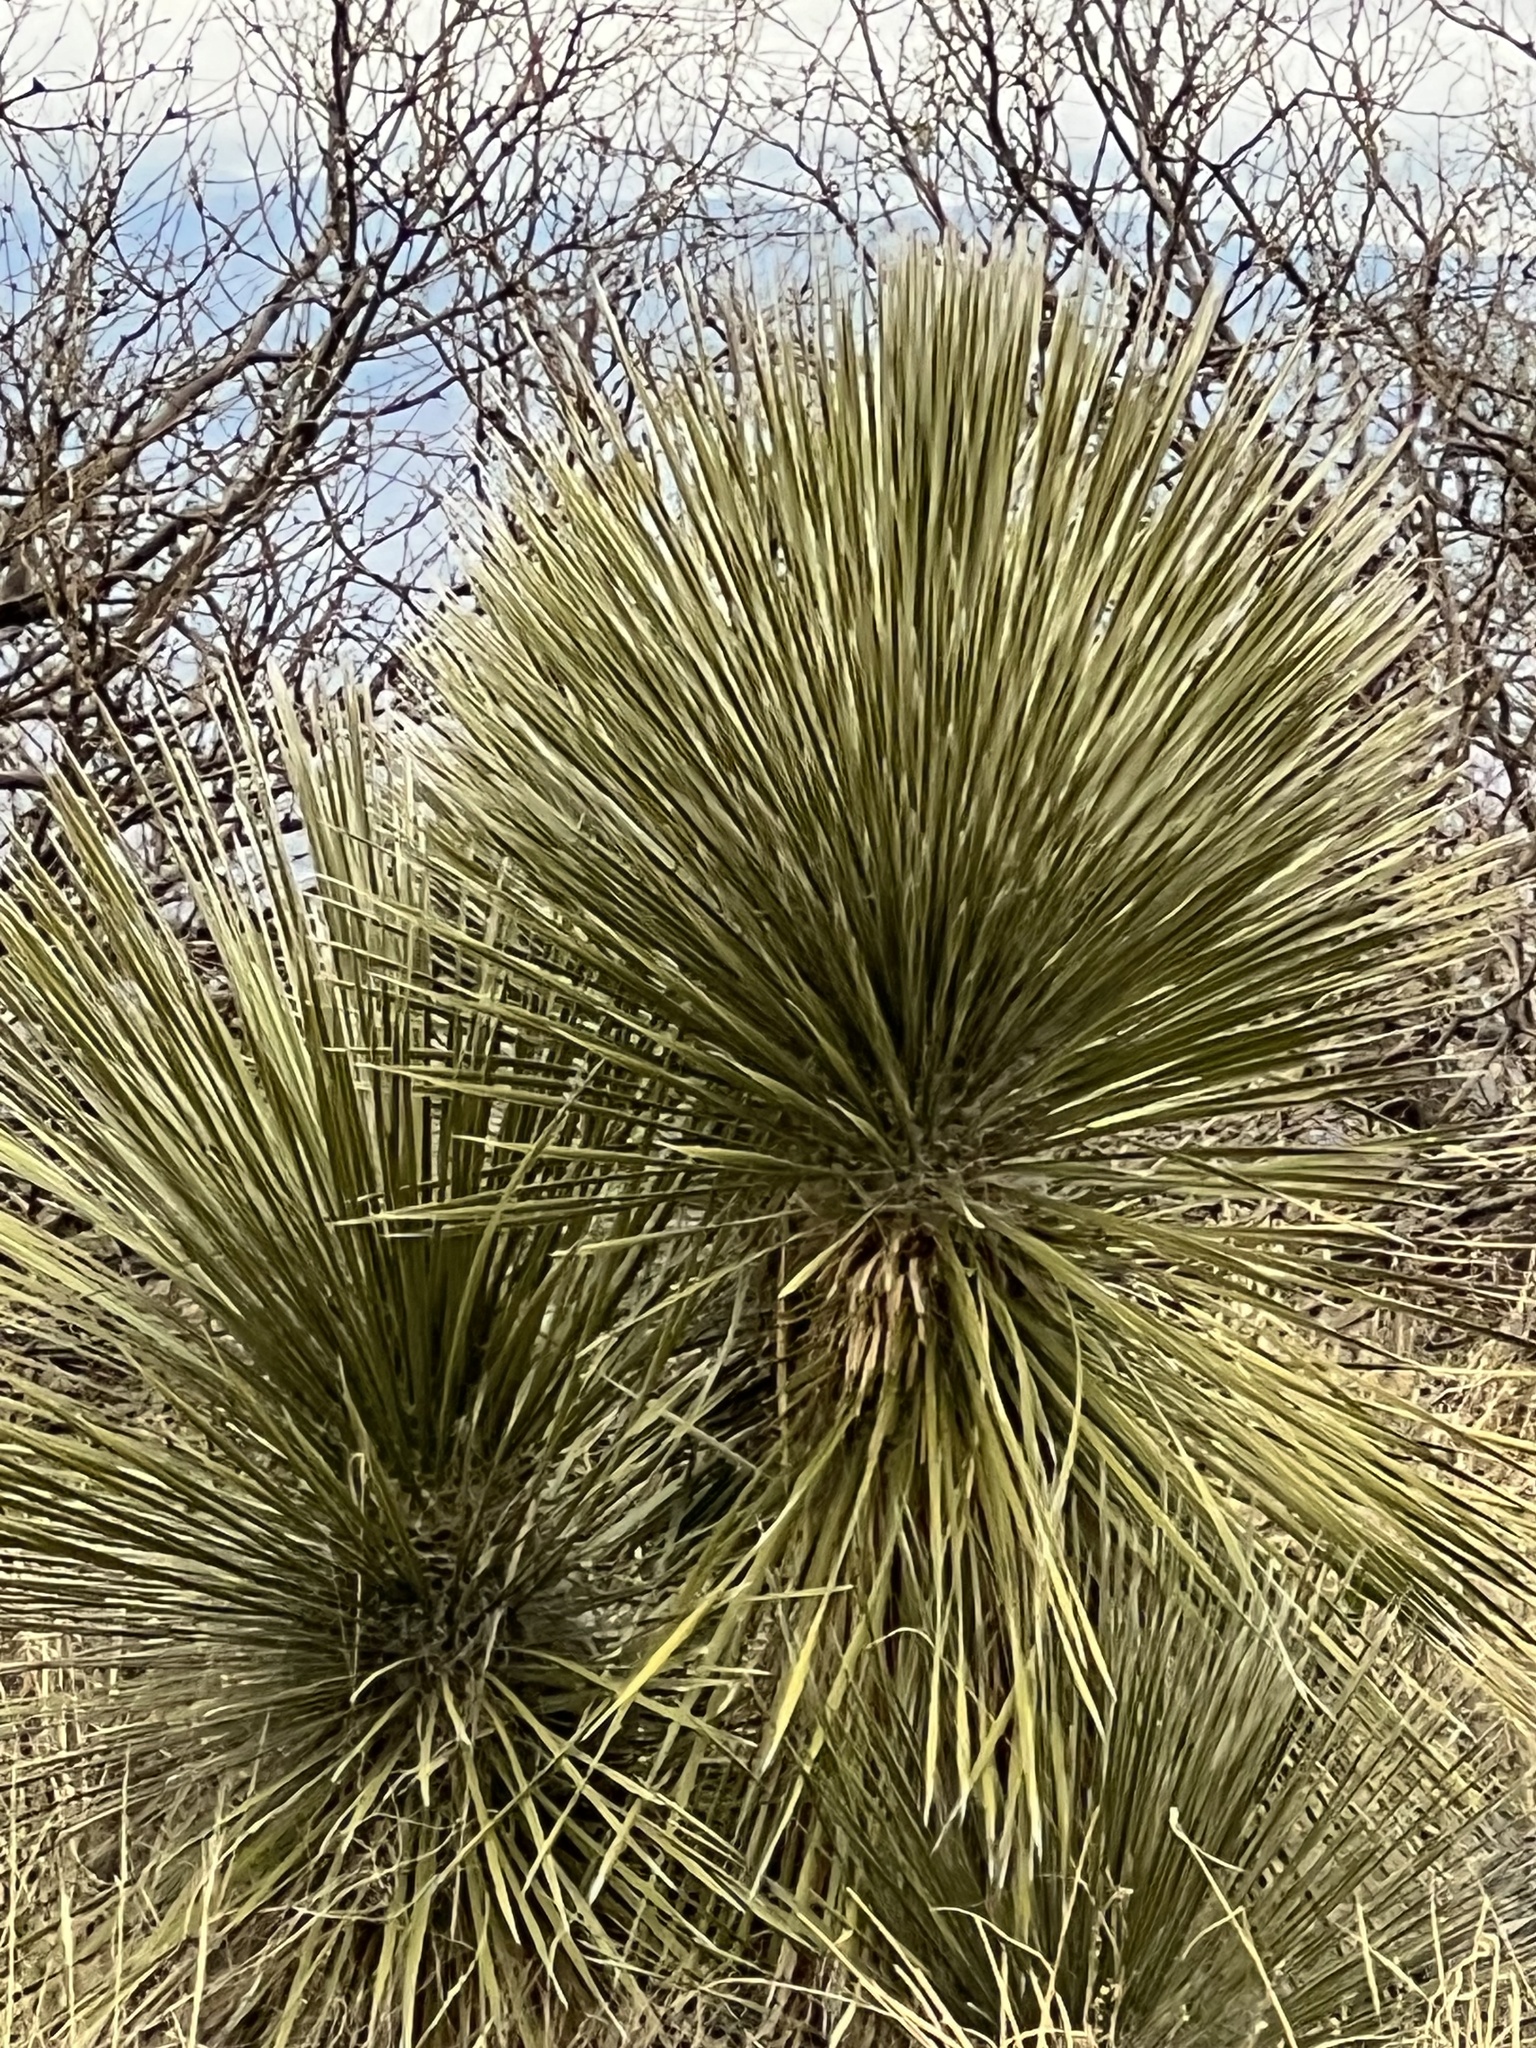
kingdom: Plantae
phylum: Tracheophyta
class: Liliopsida
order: Asparagales
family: Asparagaceae
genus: Yucca
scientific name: Yucca elata
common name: Palmella
